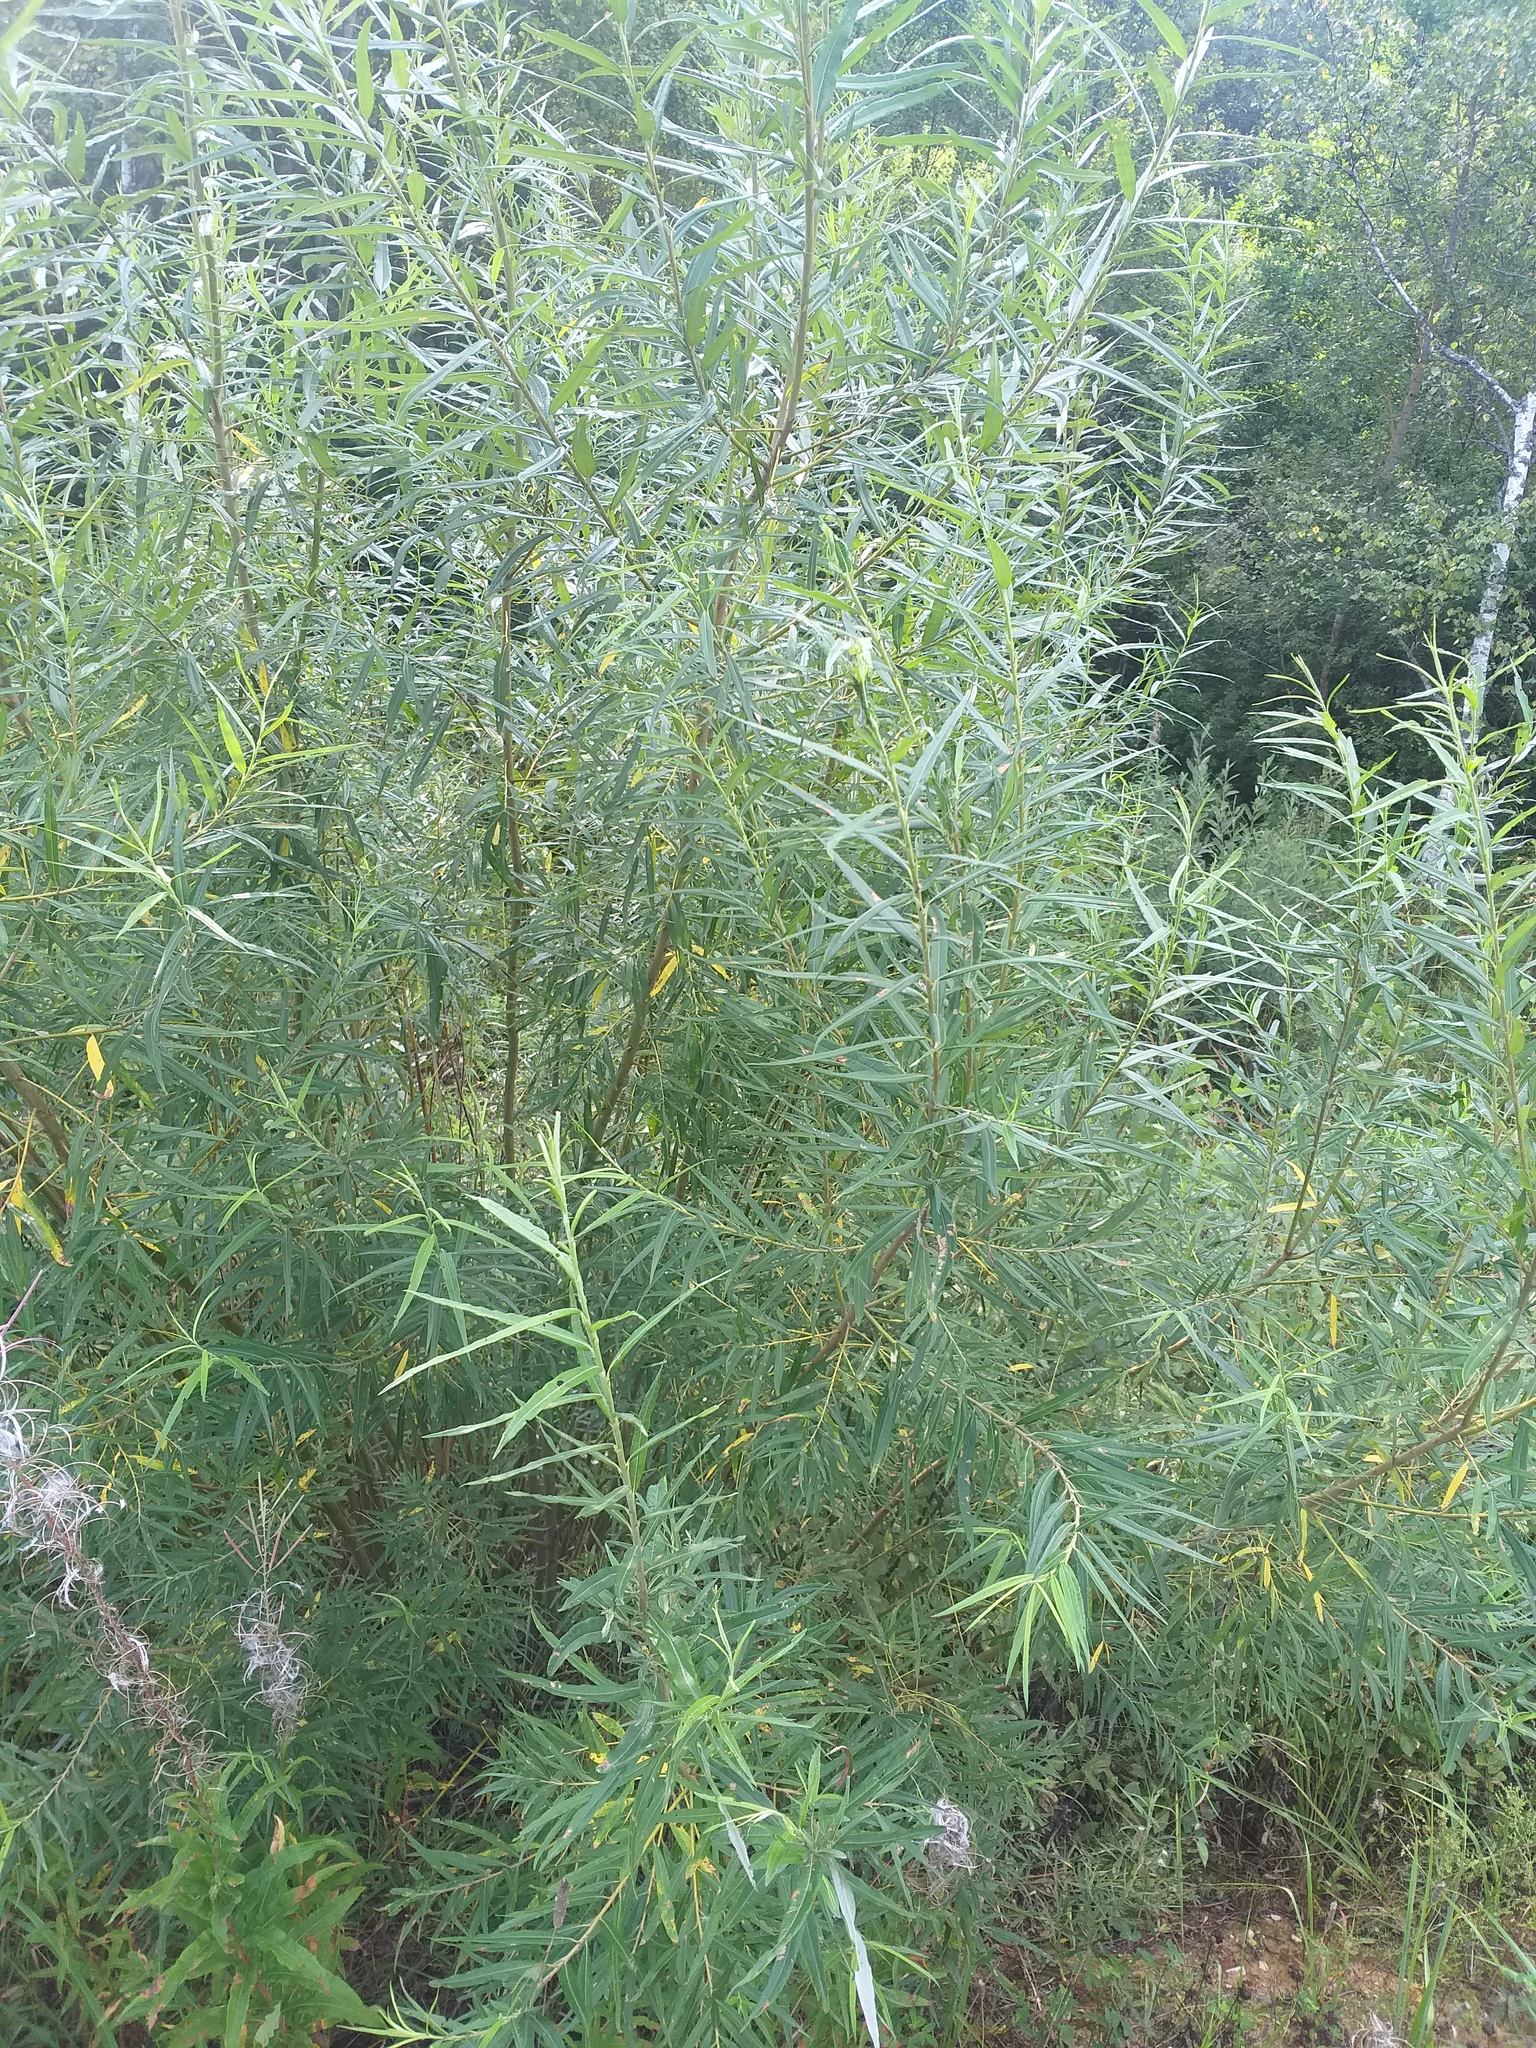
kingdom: Plantae
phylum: Tracheophyta
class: Magnoliopsida
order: Malpighiales
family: Salicaceae
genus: Salix
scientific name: Salix viminalis
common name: Osier
